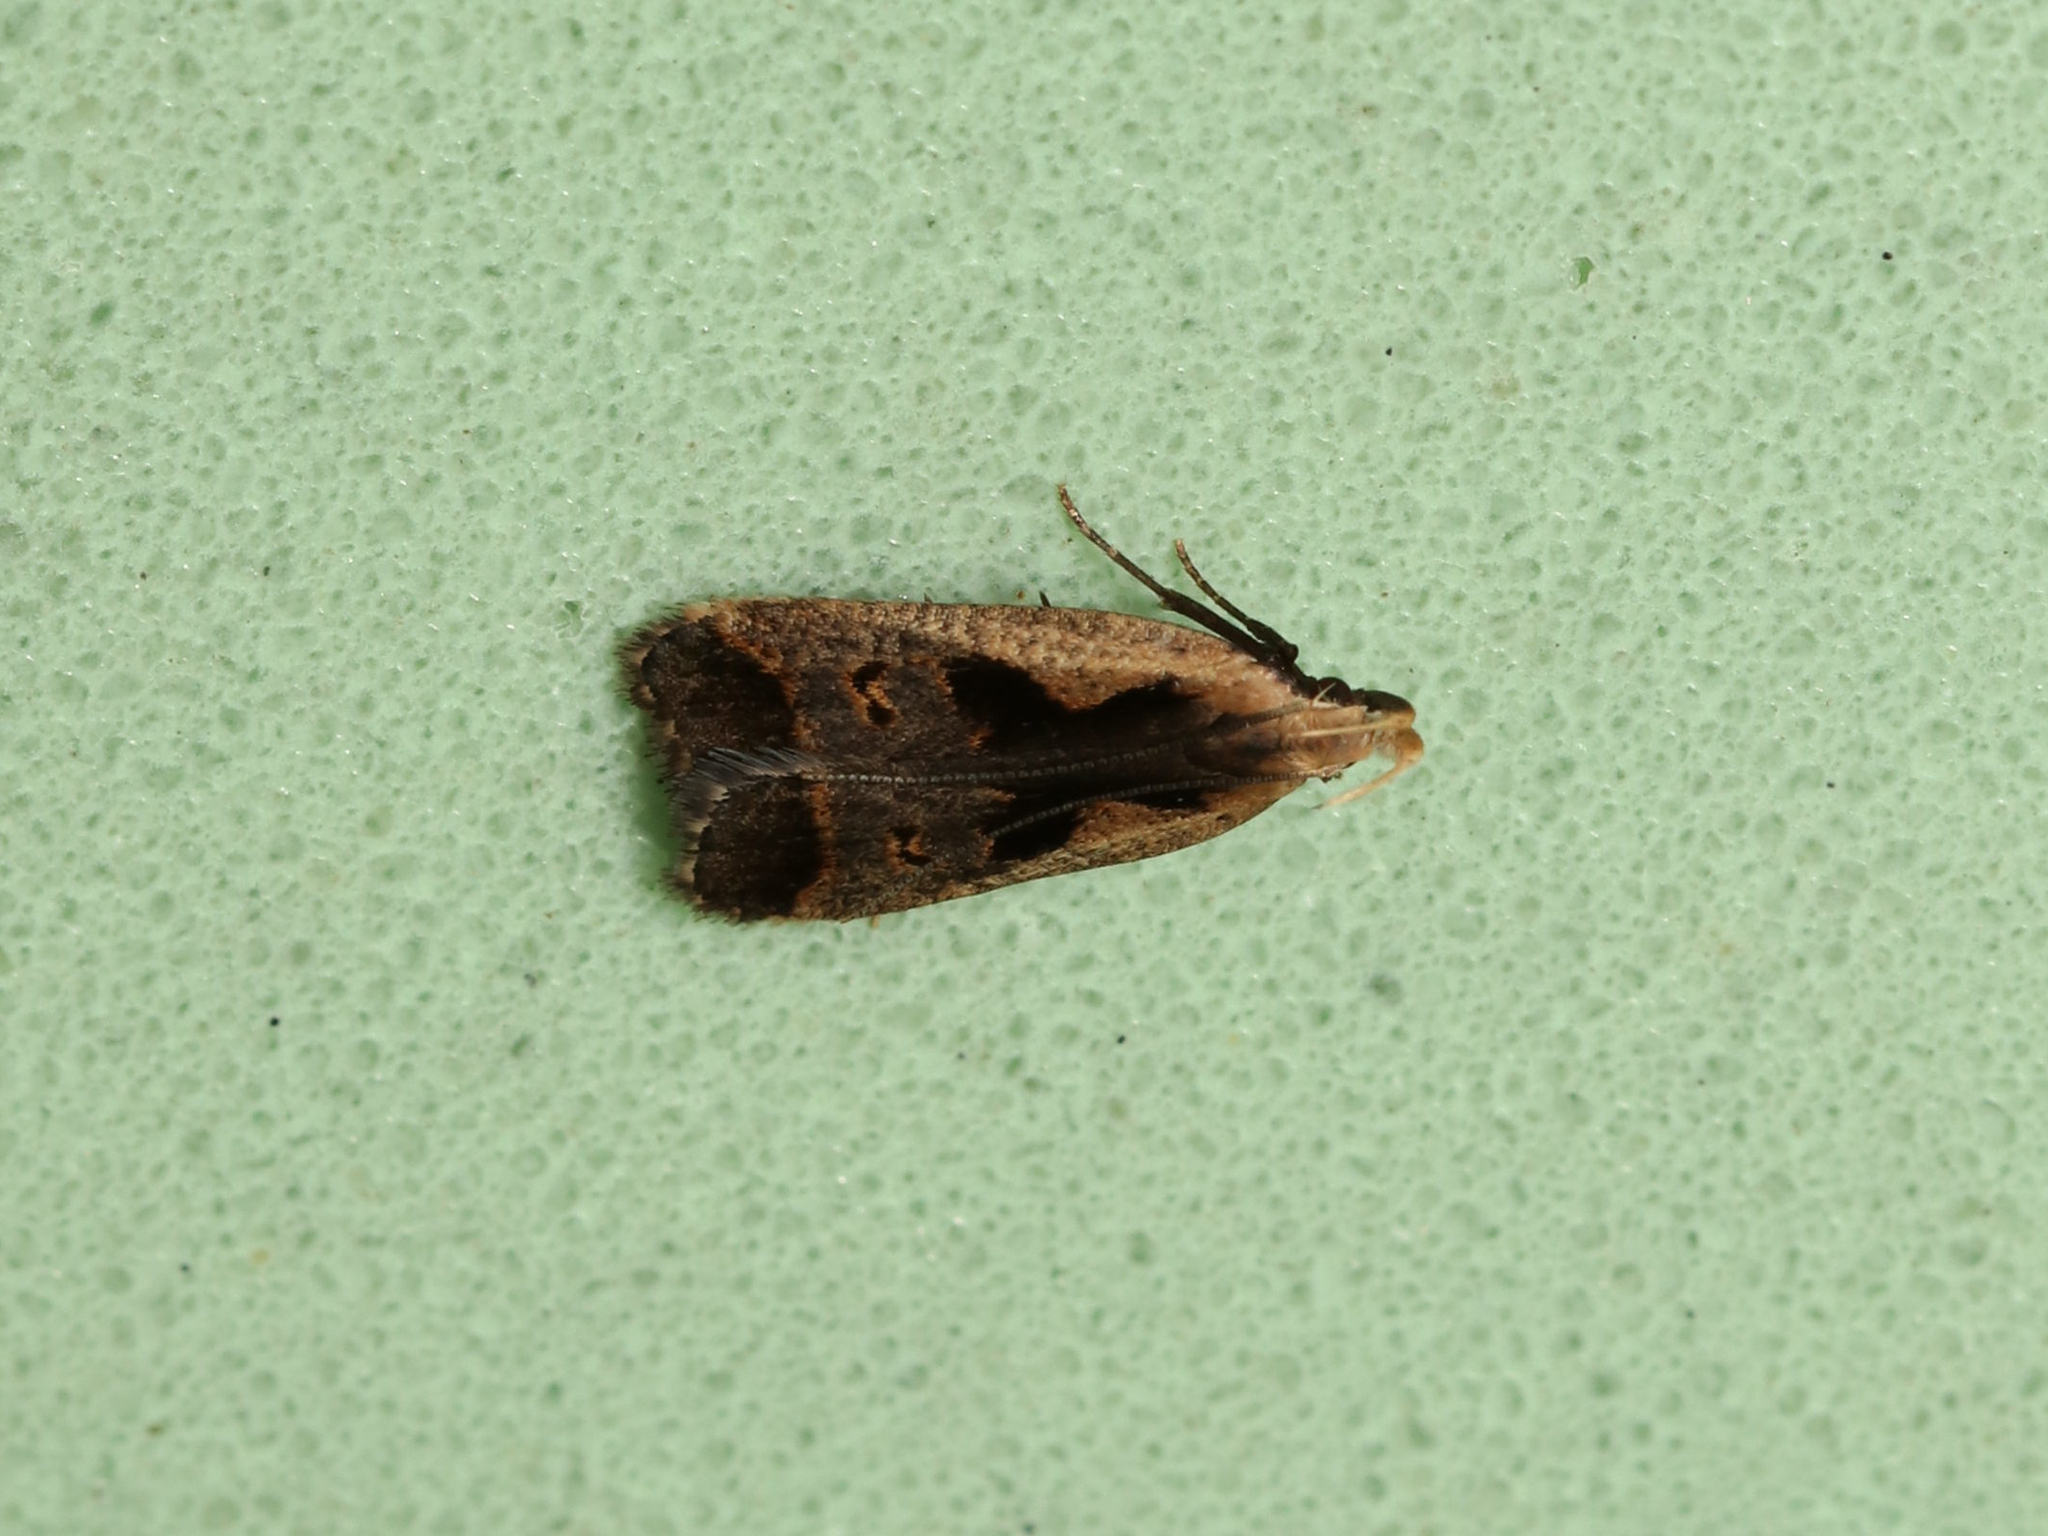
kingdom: Animalia
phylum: Arthropoda
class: Insecta
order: Lepidoptera
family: Gelechiidae
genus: Dichomeris
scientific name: Dichomeris bilobella
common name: Bilobed dichomeris moth
